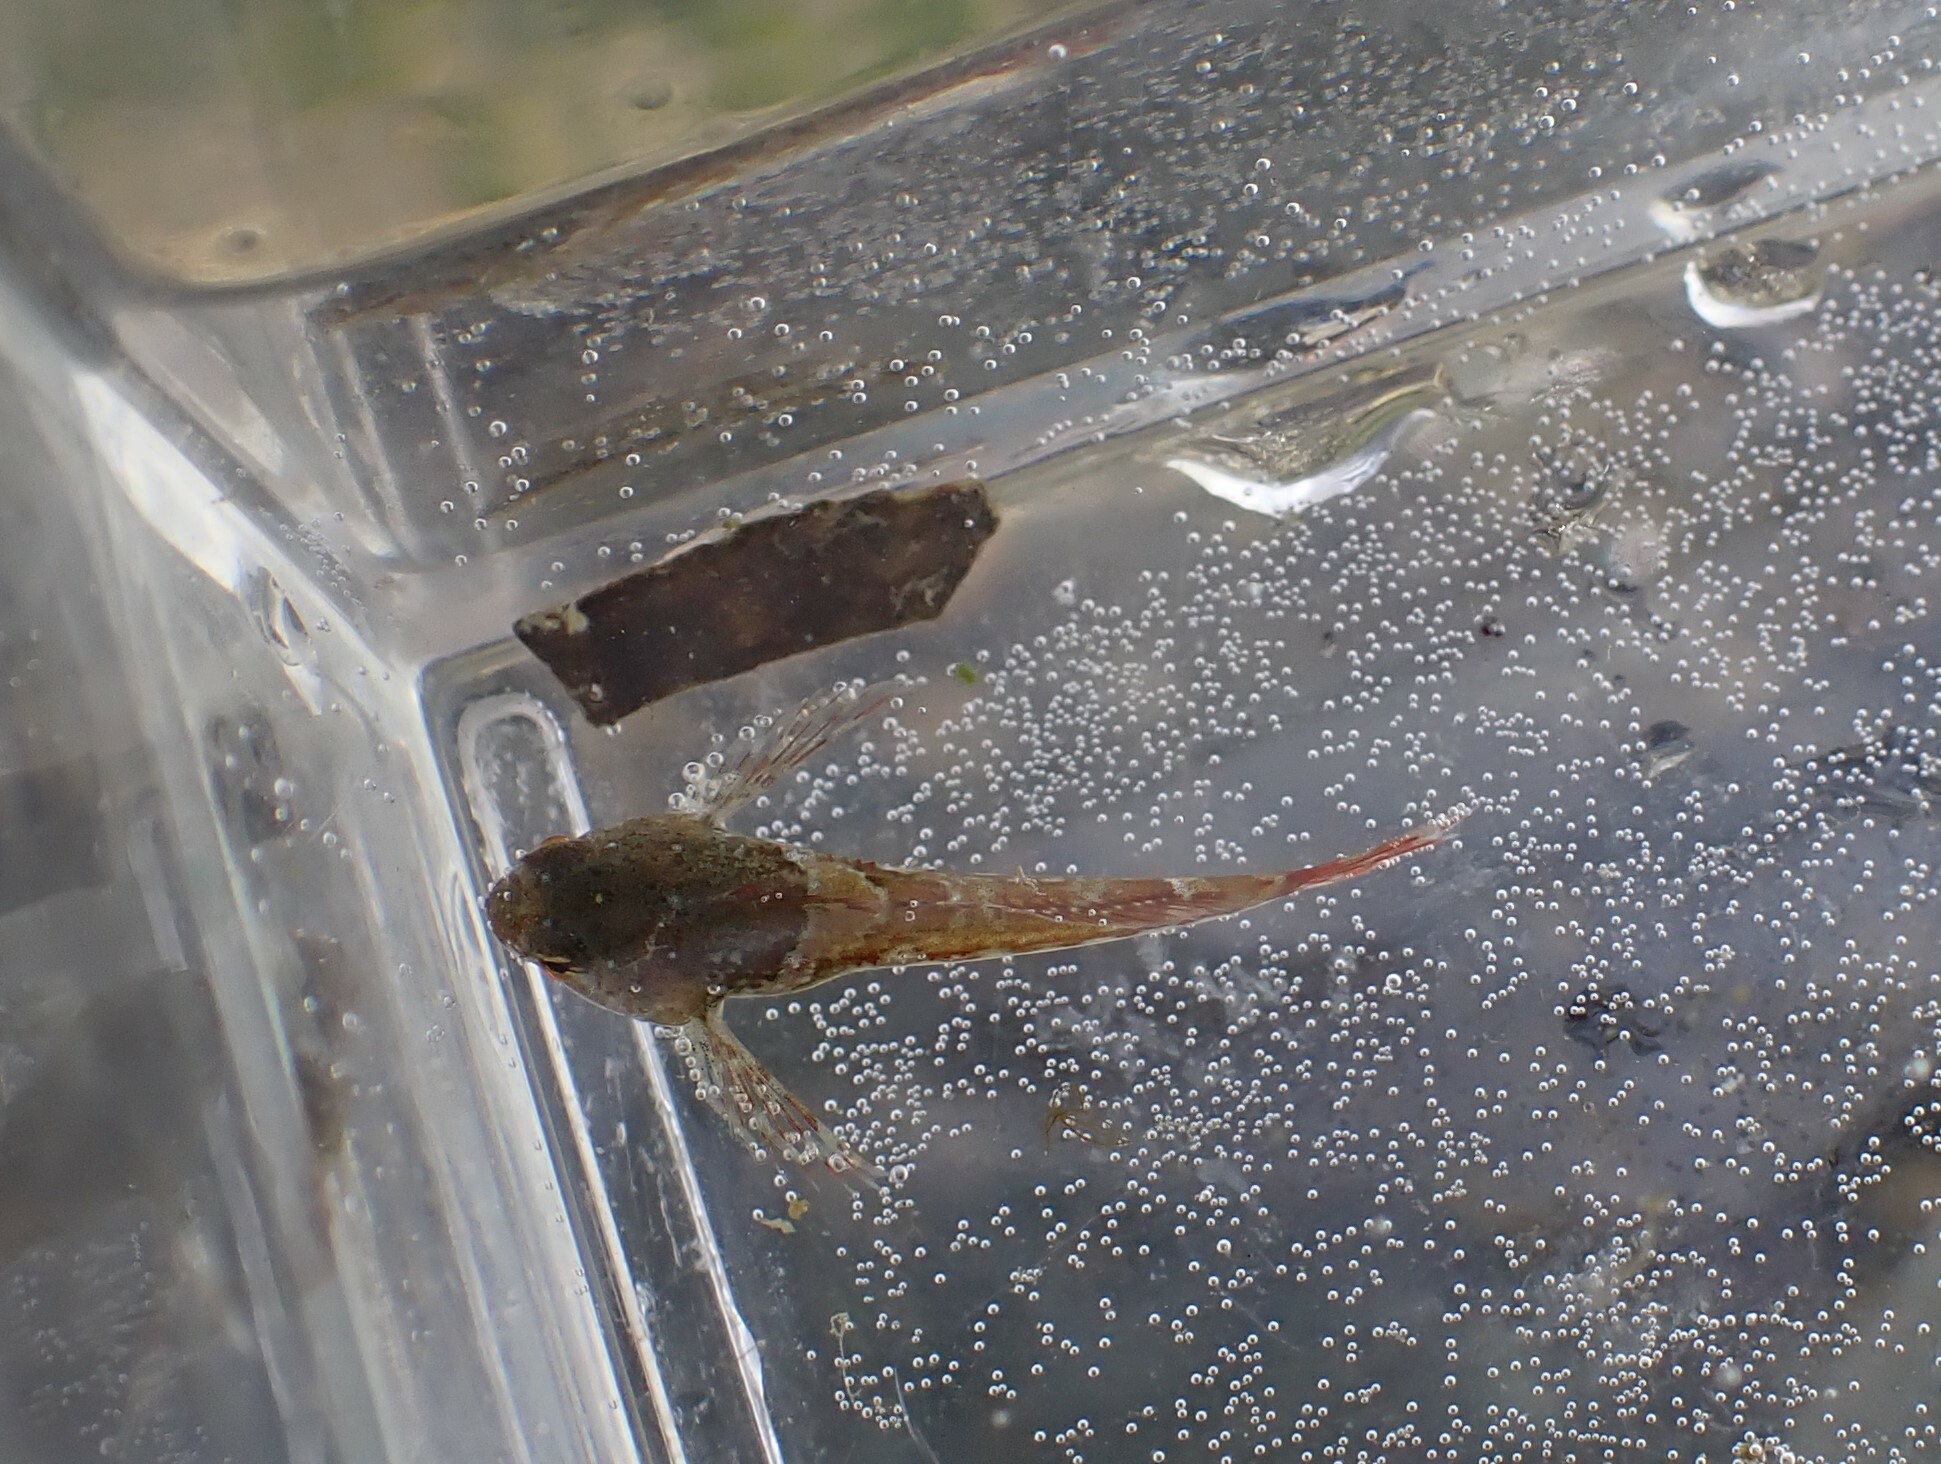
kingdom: Animalia
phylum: Chordata
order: Scorpaeniformes
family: Cottidae
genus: Oligocottus
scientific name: Oligocottus maculosus
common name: Tidepool sculpin
